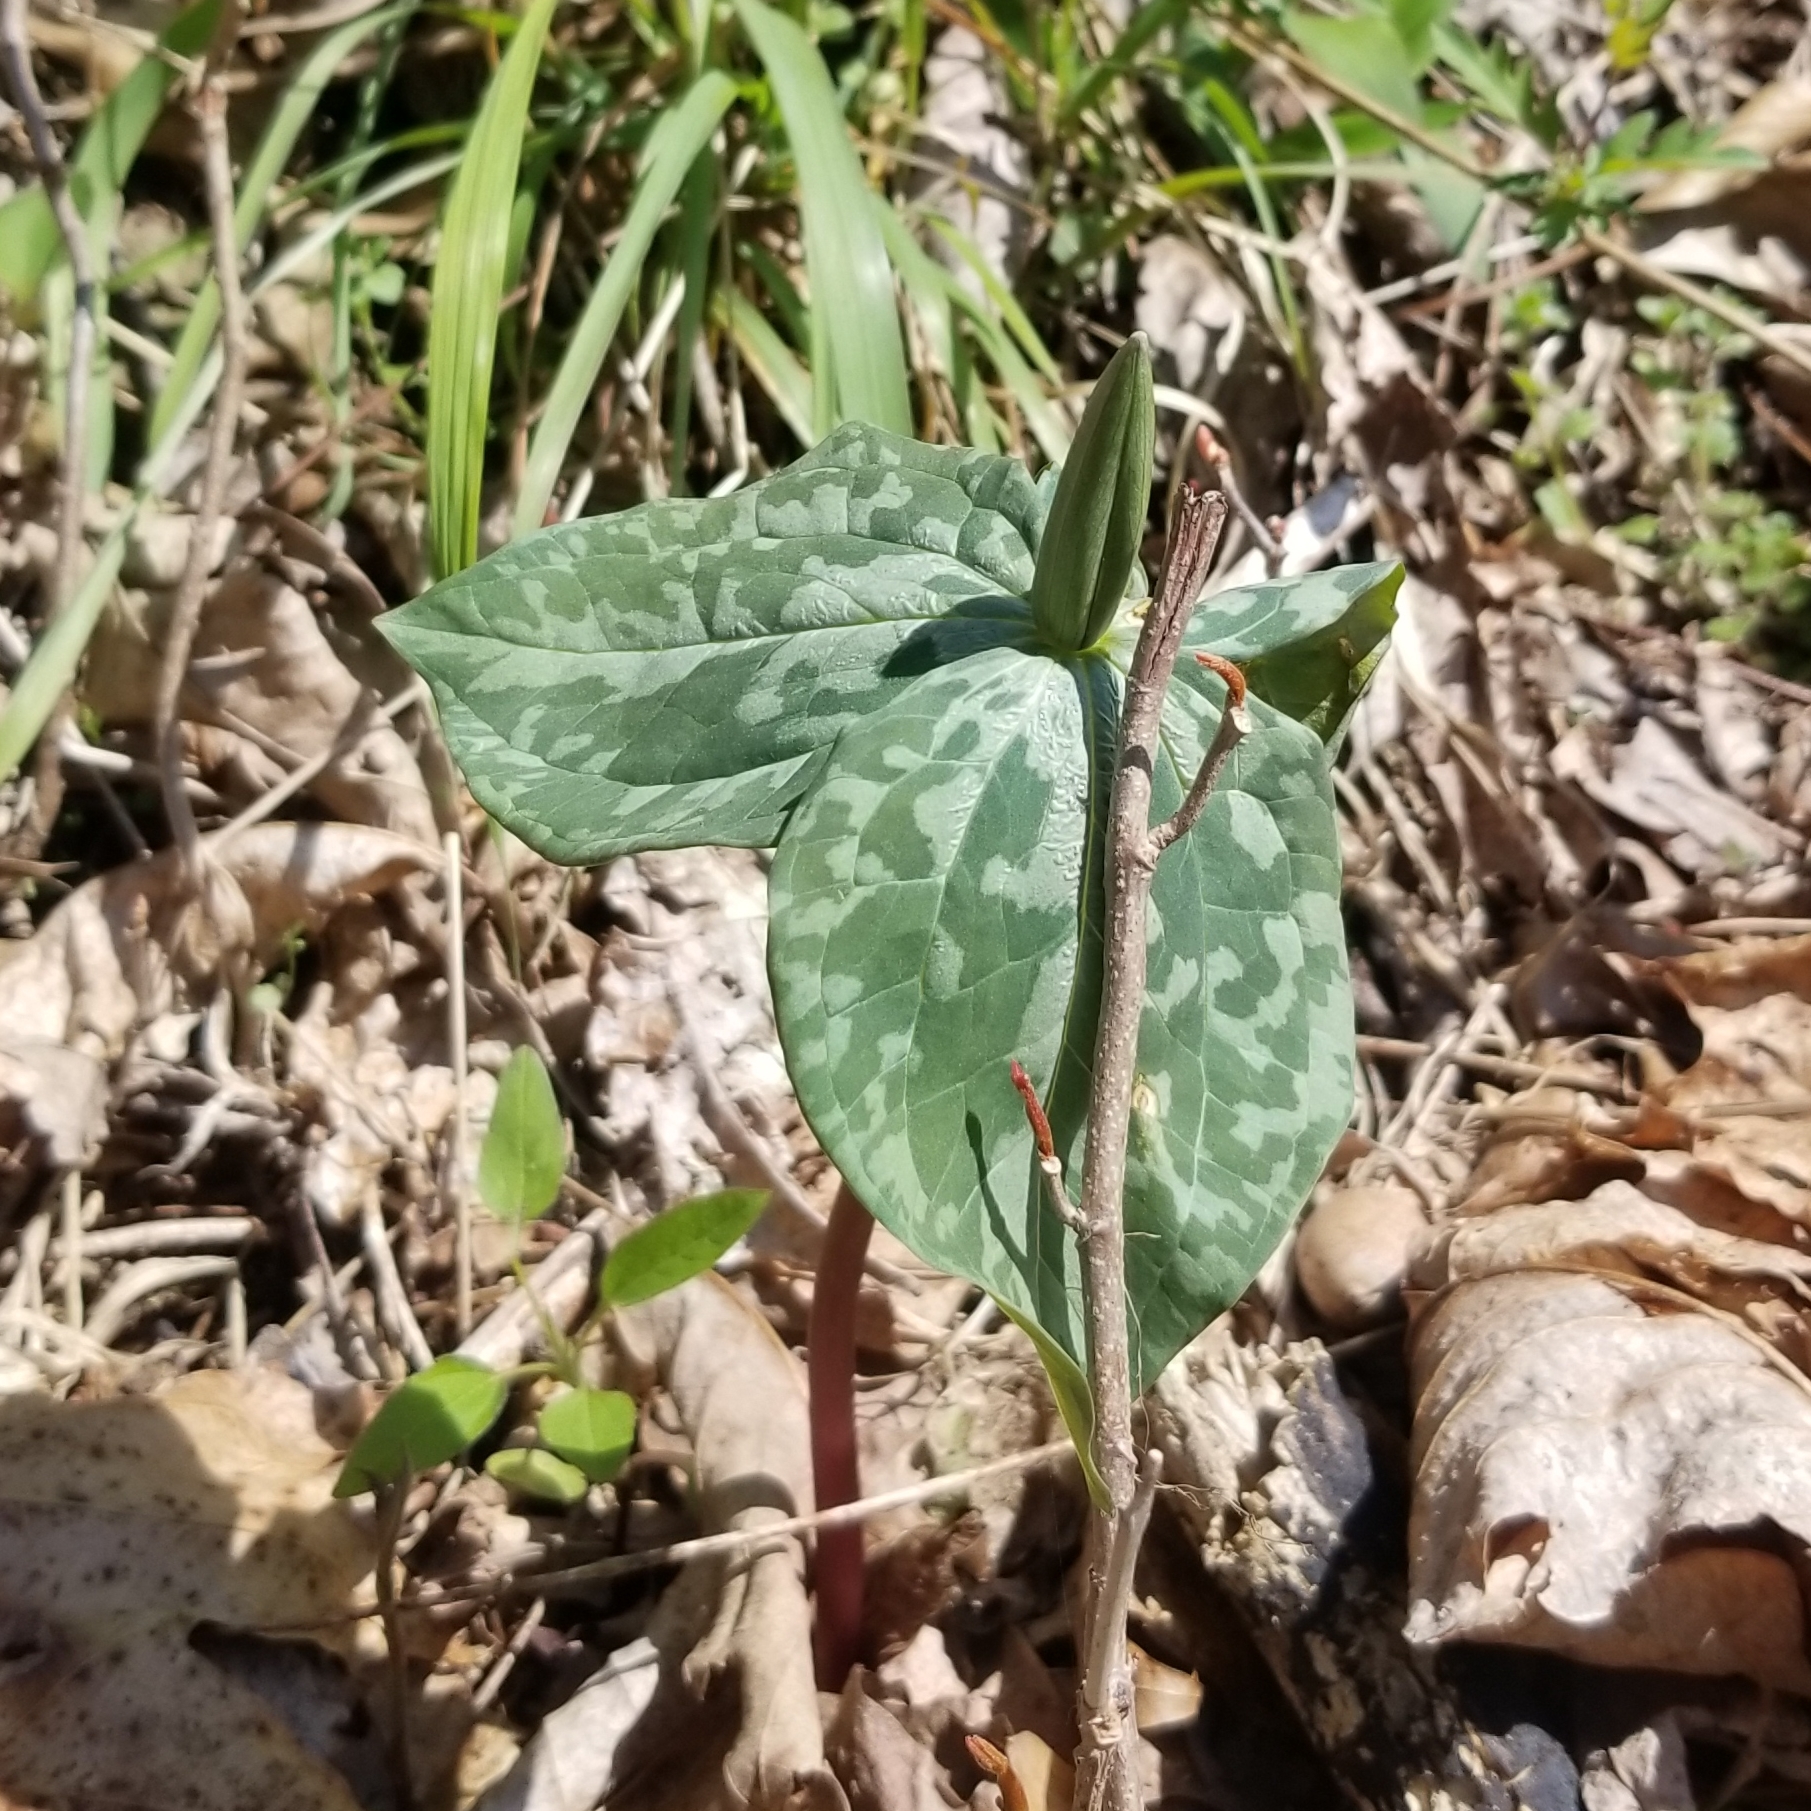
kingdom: Plantae
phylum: Tracheophyta
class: Liliopsida
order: Liliales
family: Melanthiaceae
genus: Trillium
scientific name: Trillium cuneatum
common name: Cuneate trillium
